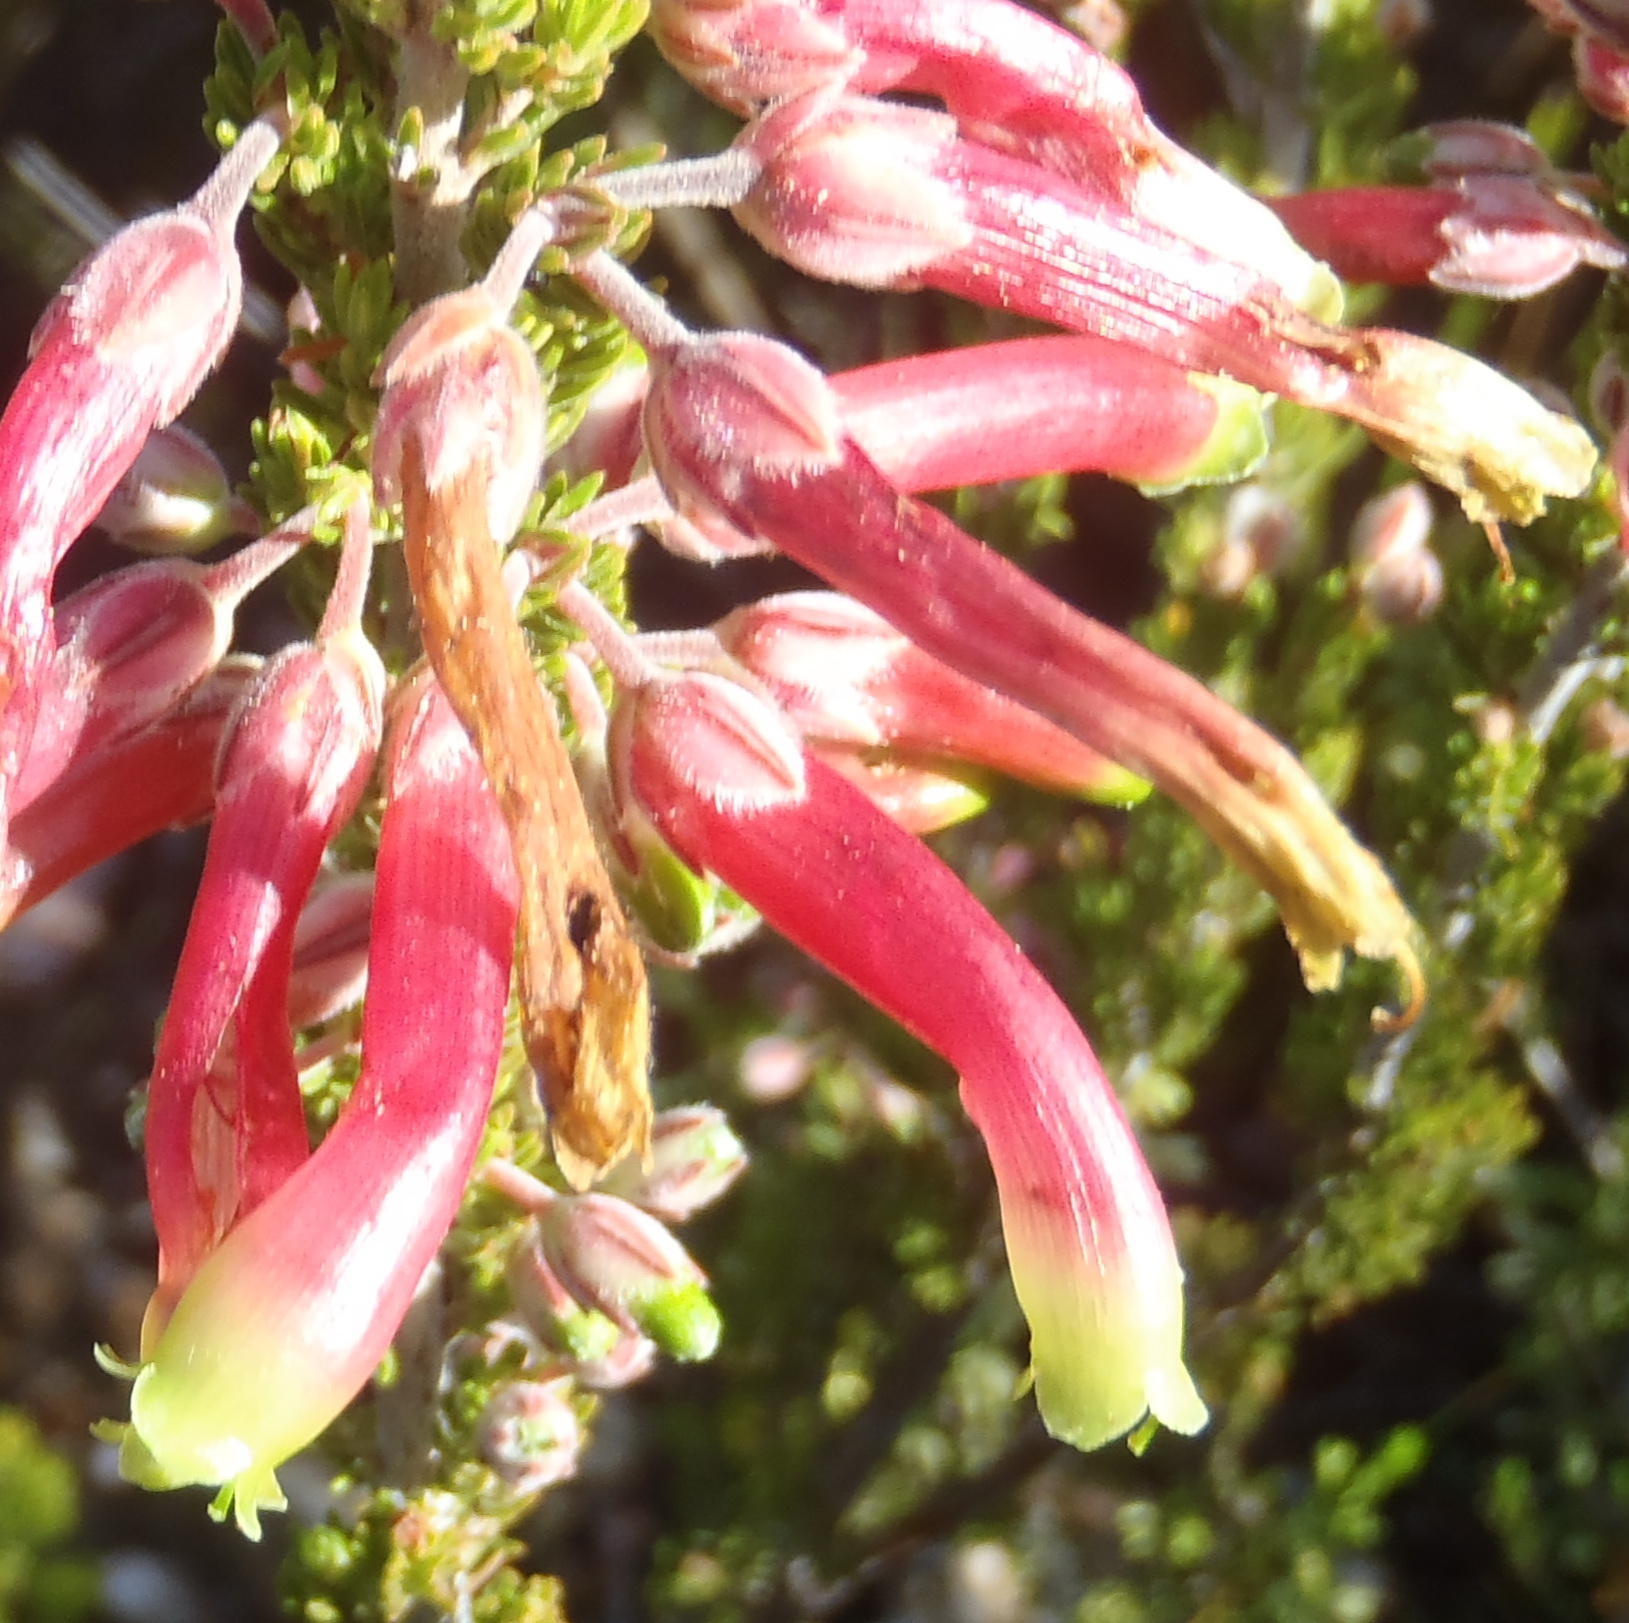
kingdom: Plantae
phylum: Tracheophyta
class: Magnoliopsida
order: Ericales
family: Ericaceae
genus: Erica
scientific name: Erica discolor
